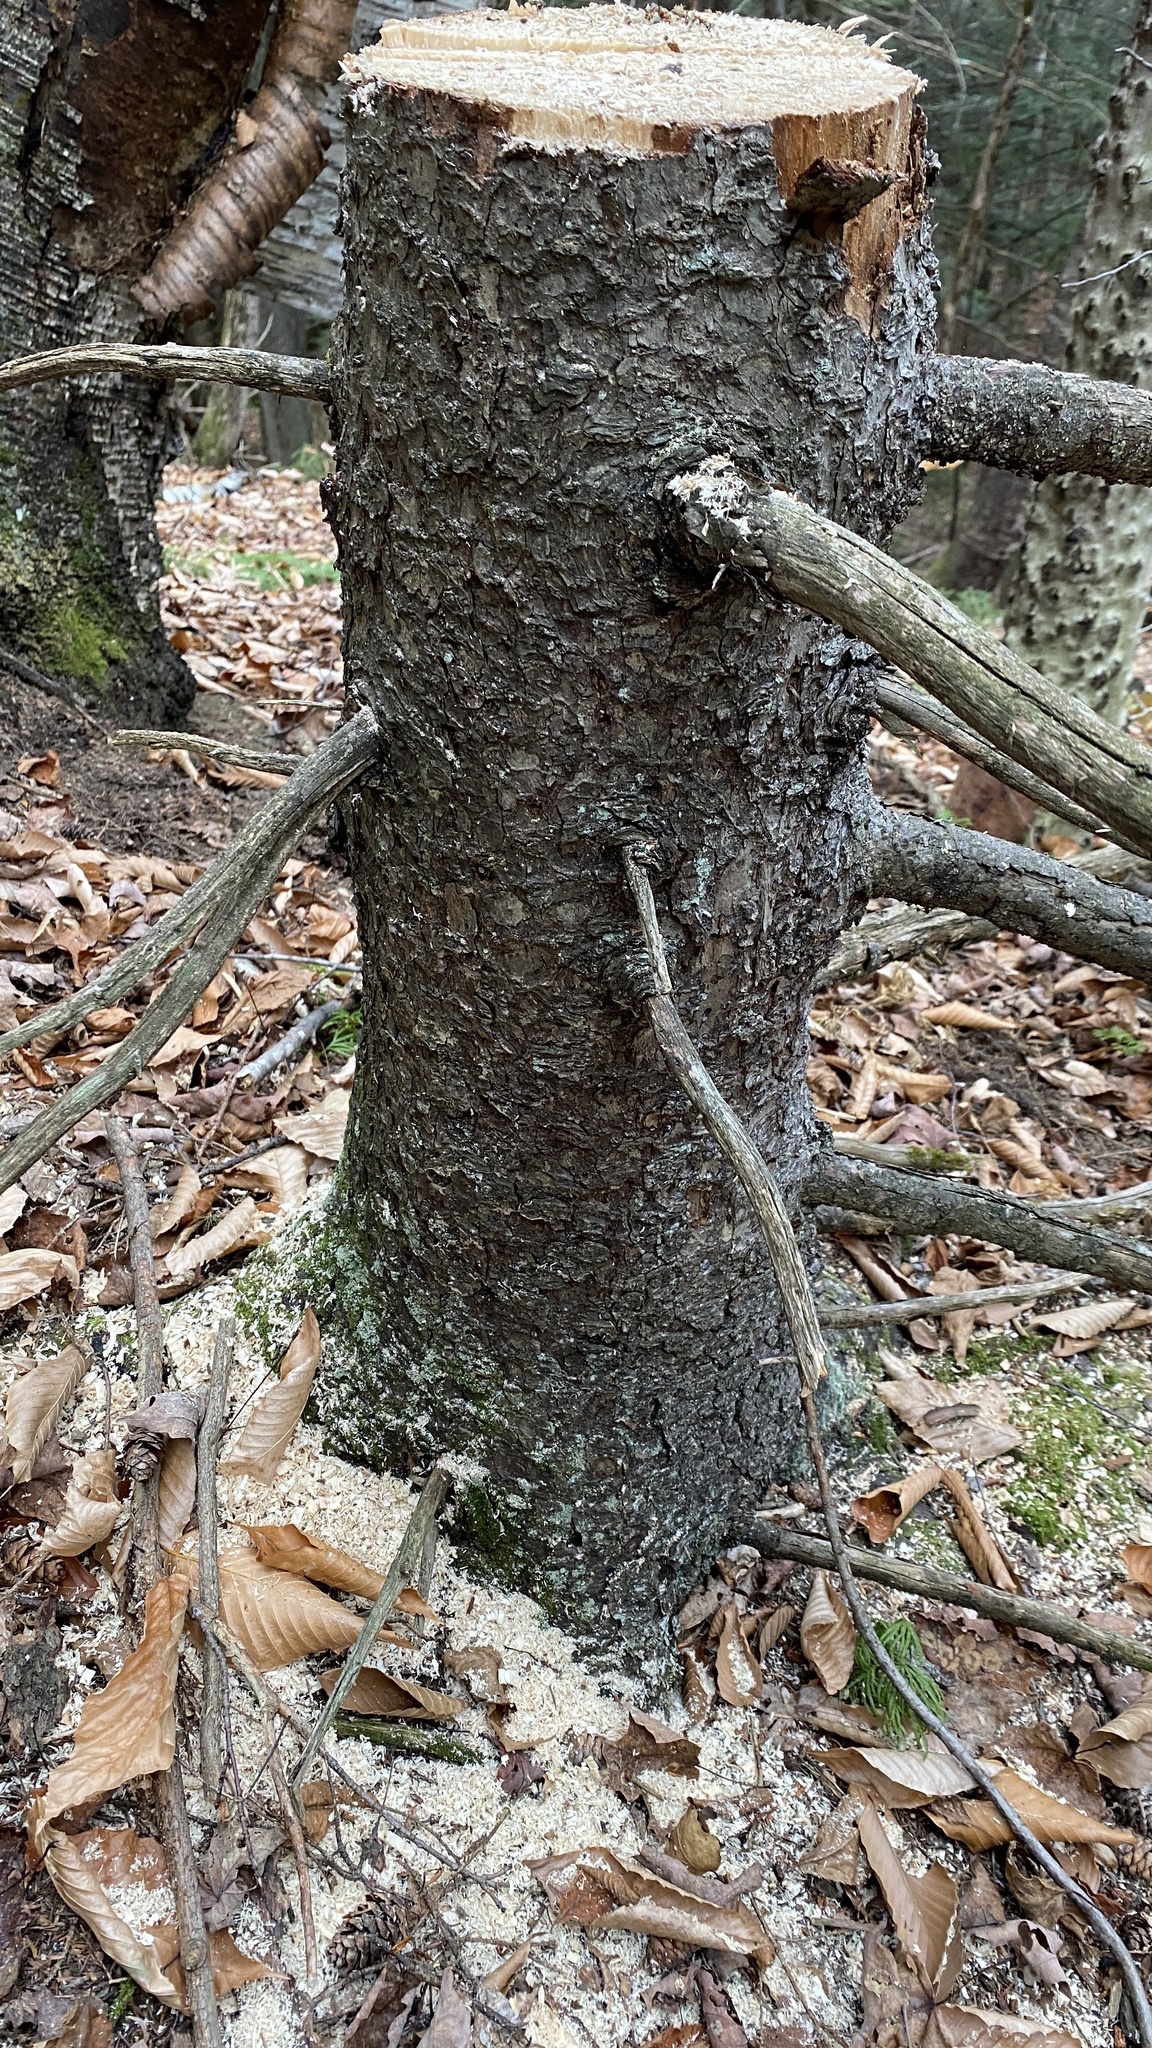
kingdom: Plantae
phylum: Tracheophyta
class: Pinopsida
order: Pinales
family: Pinaceae
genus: Picea
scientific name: Picea rubens
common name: Red spruce
